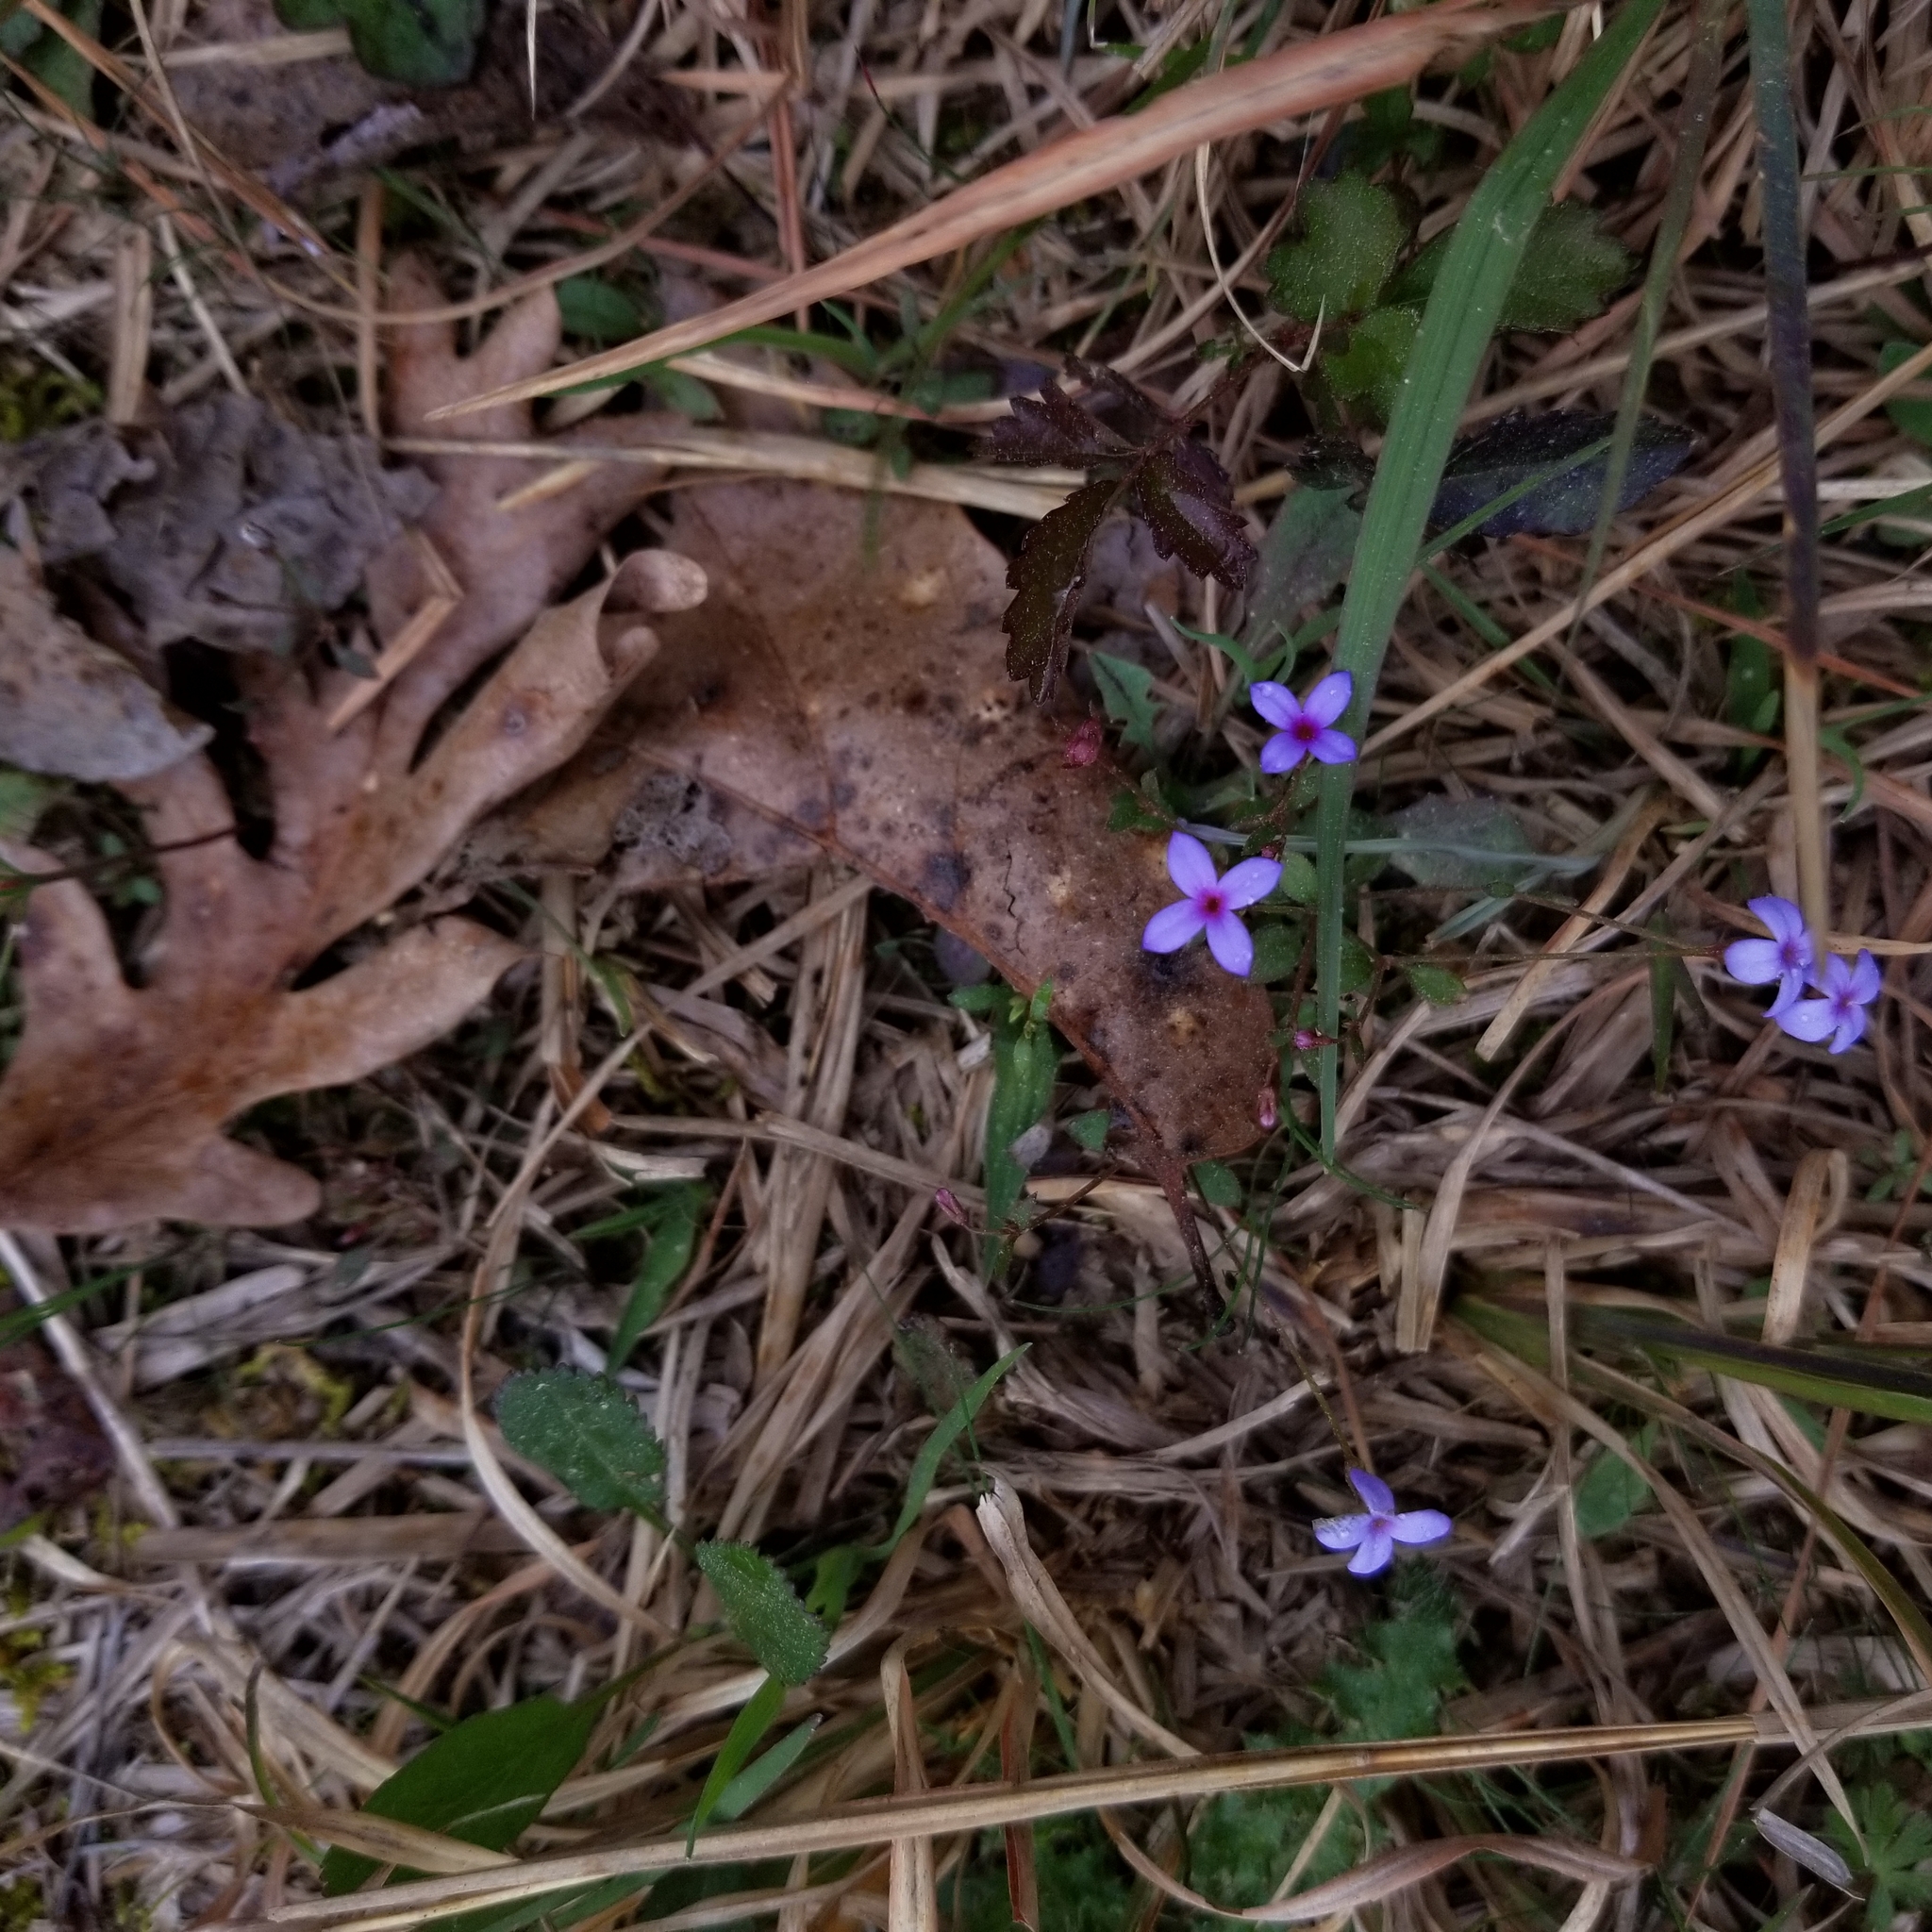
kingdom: Plantae
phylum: Tracheophyta
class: Magnoliopsida
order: Gentianales
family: Rubiaceae
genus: Houstonia
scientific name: Houstonia pusilla
